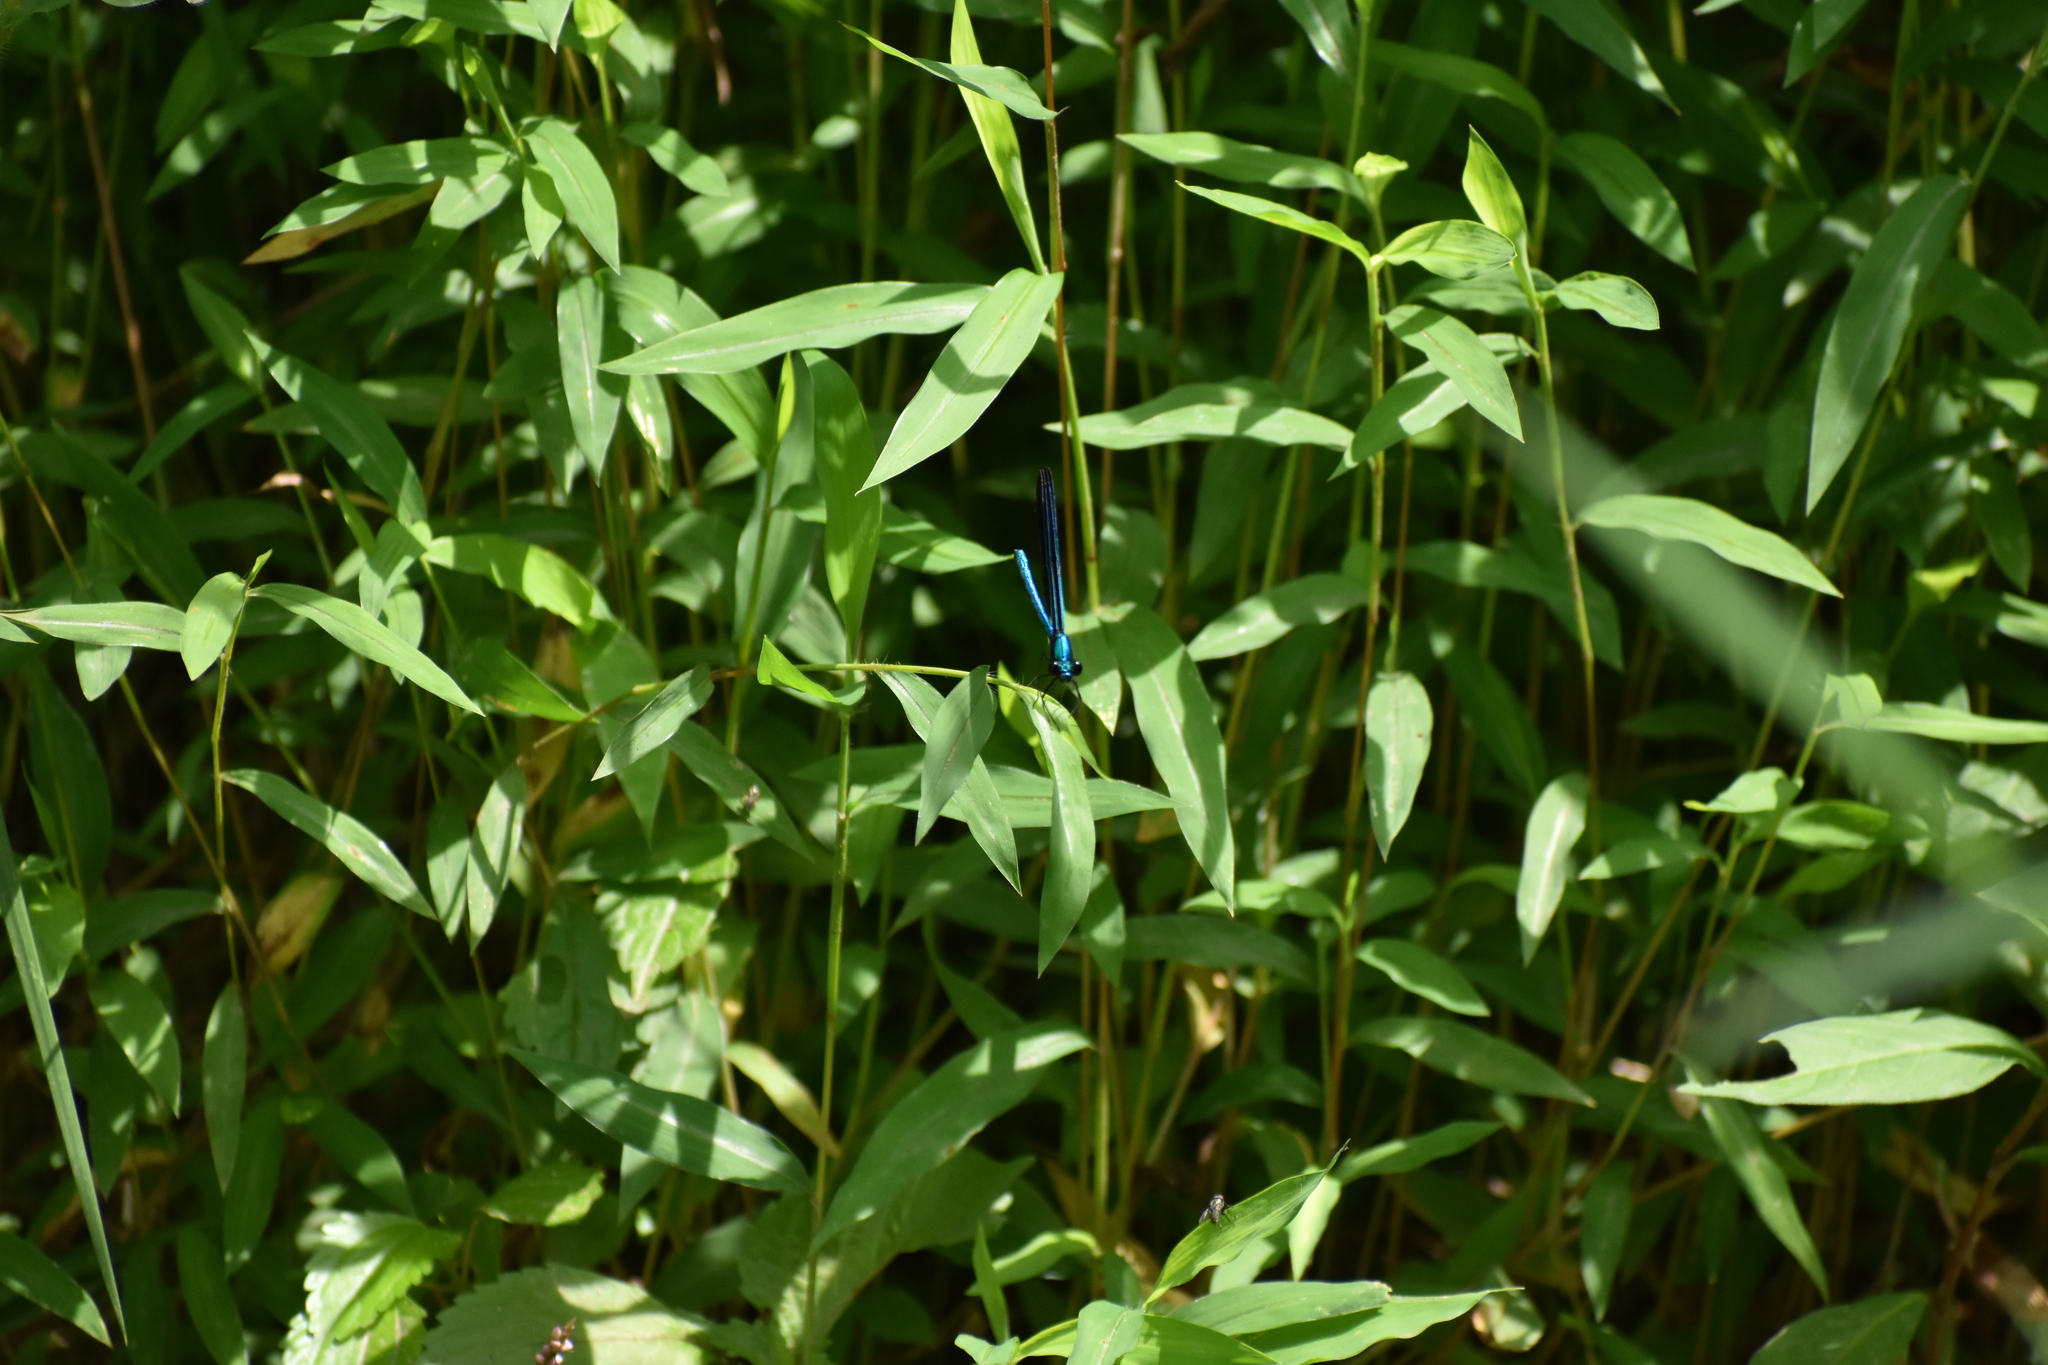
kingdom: Animalia
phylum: Arthropoda
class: Insecta
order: Odonata
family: Calopterygidae
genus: Calopteryx
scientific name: Calopteryx maculata
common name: Ebony jewelwing
